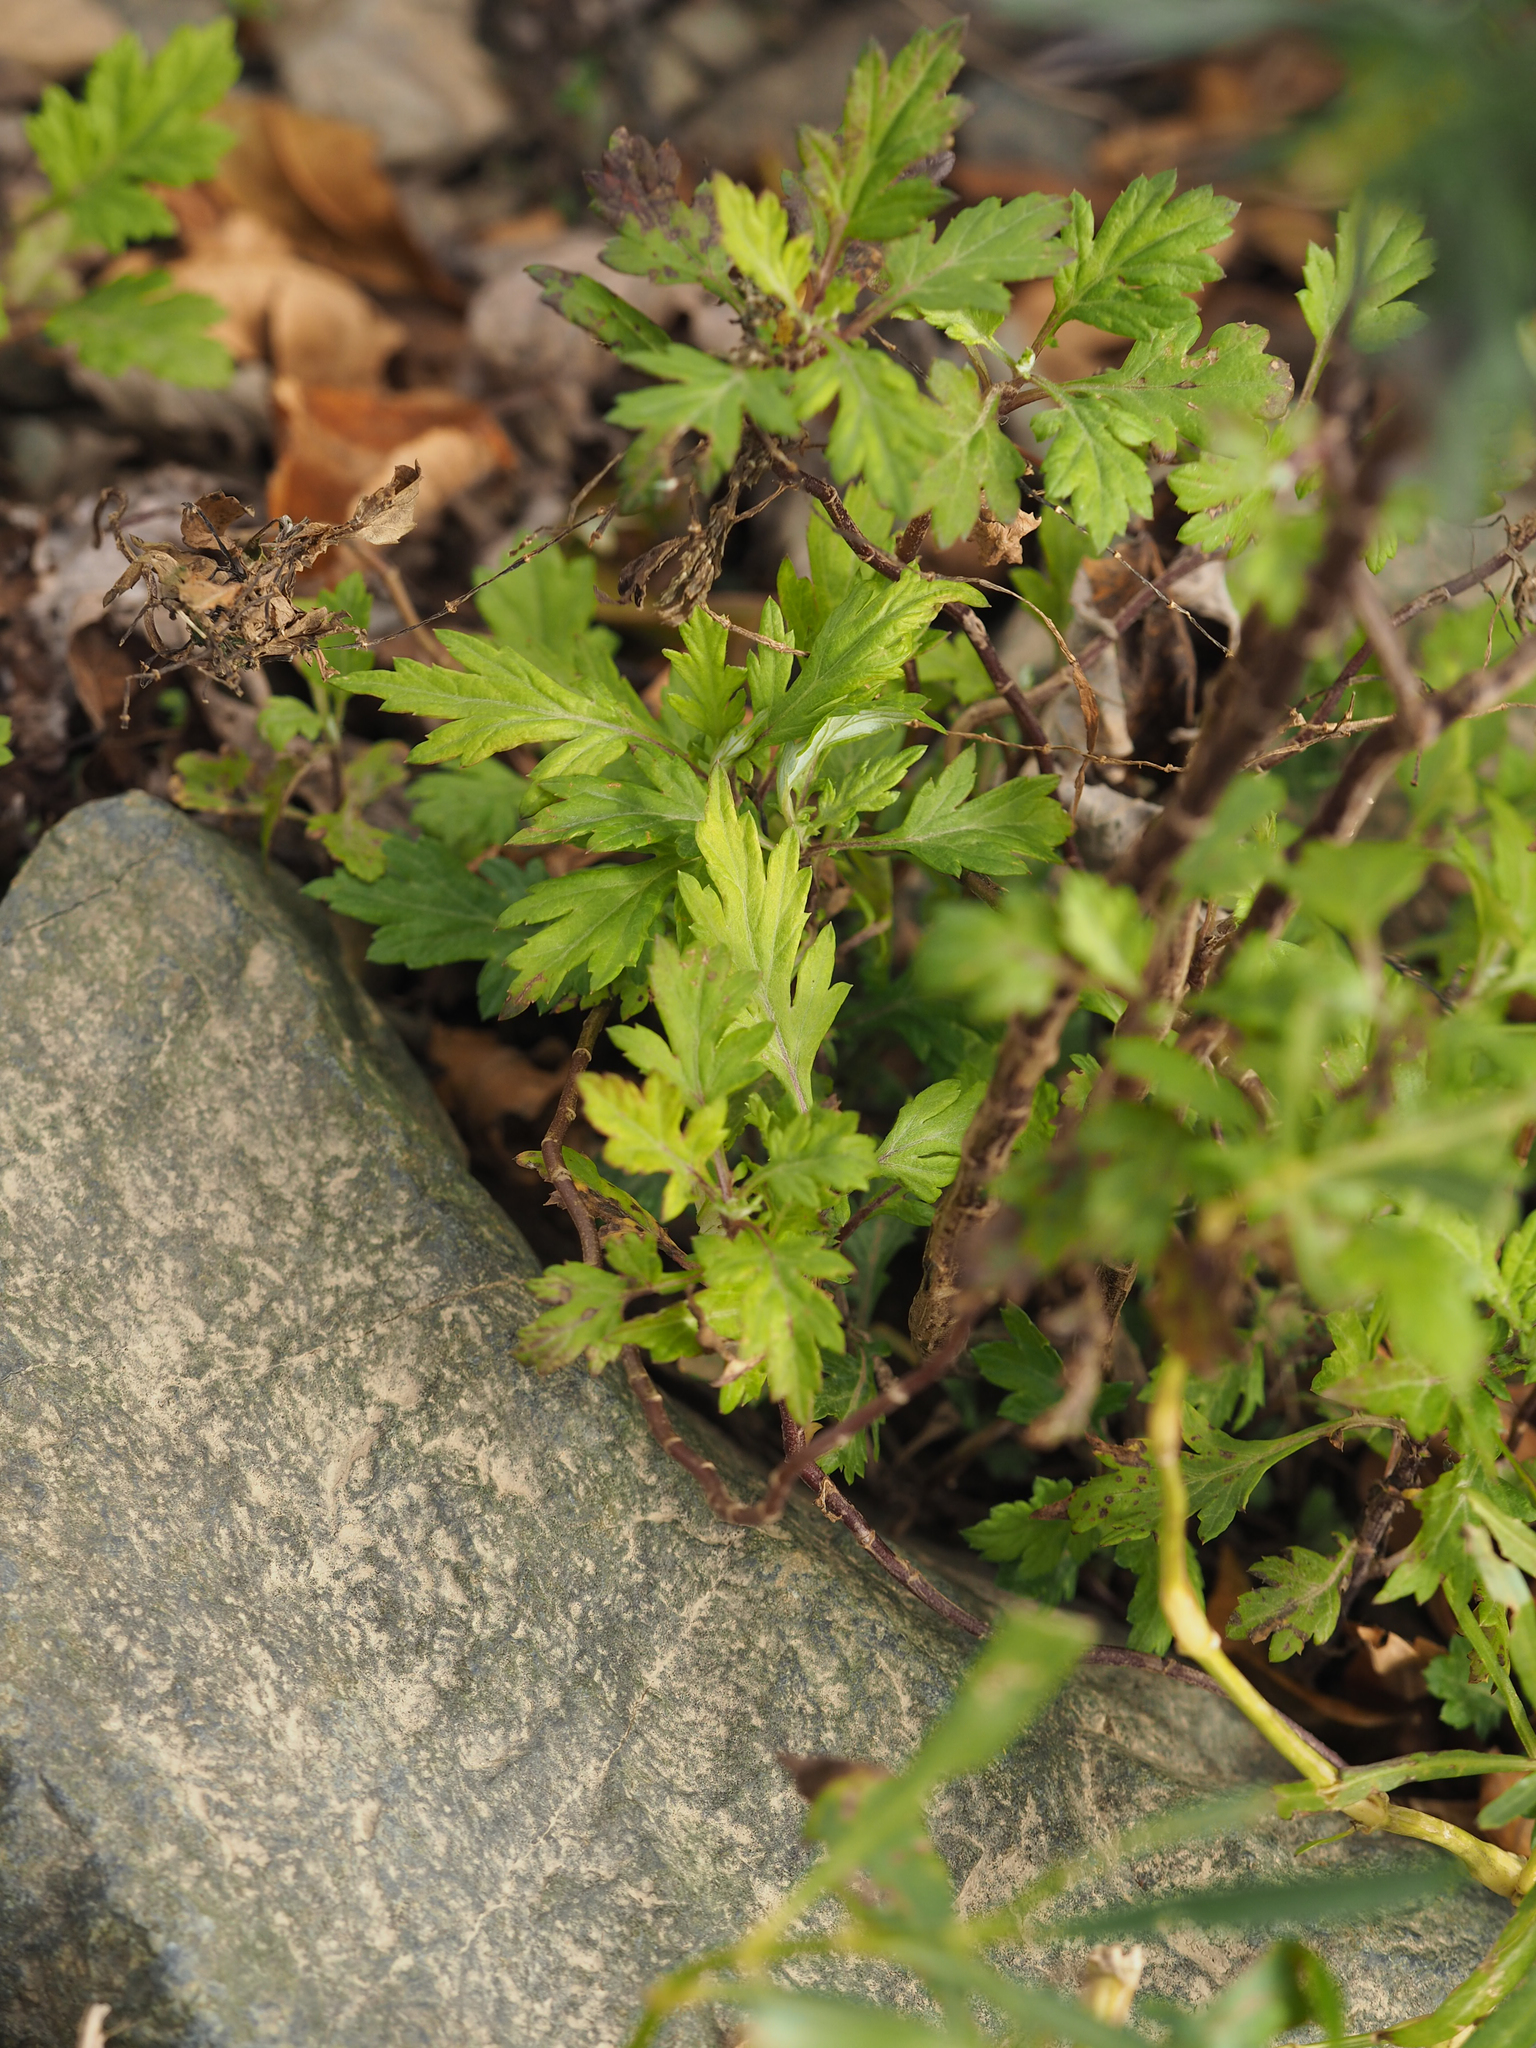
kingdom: Plantae
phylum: Tracheophyta
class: Magnoliopsida
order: Asterales
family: Asteraceae
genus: Artemisia
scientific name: Artemisia vulgaris
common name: Mugwort
